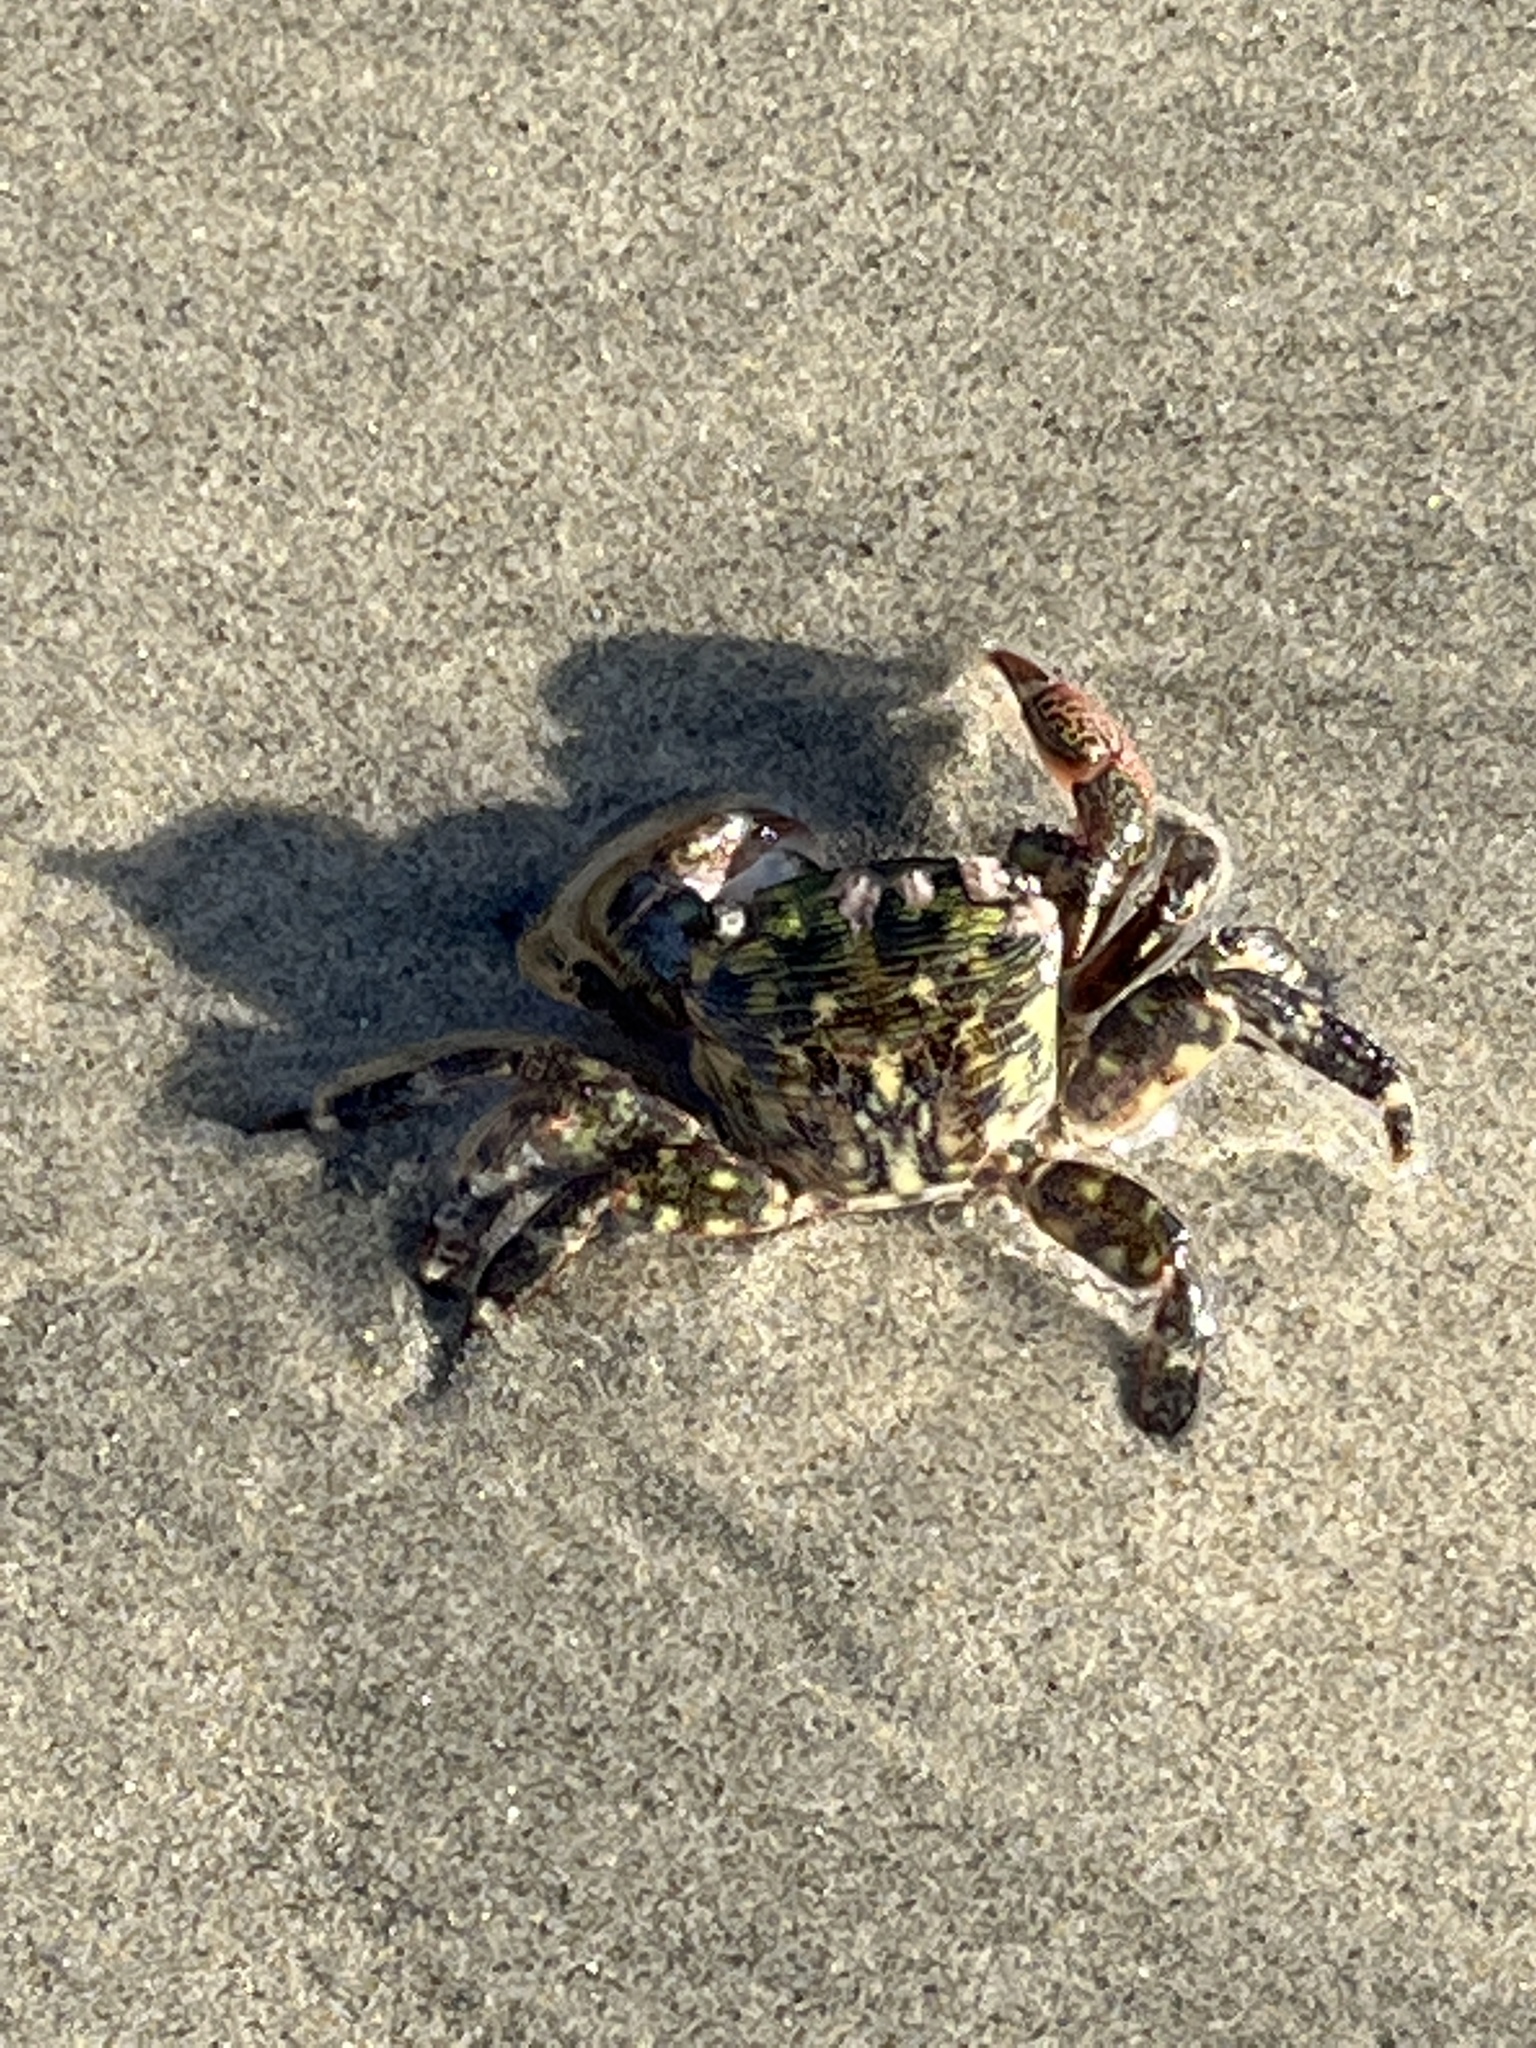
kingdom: Animalia
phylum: Arthropoda
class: Malacostraca
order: Decapoda
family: Grapsidae
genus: Pachygrapsus
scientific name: Pachygrapsus crassipes
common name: Striped shore crab
